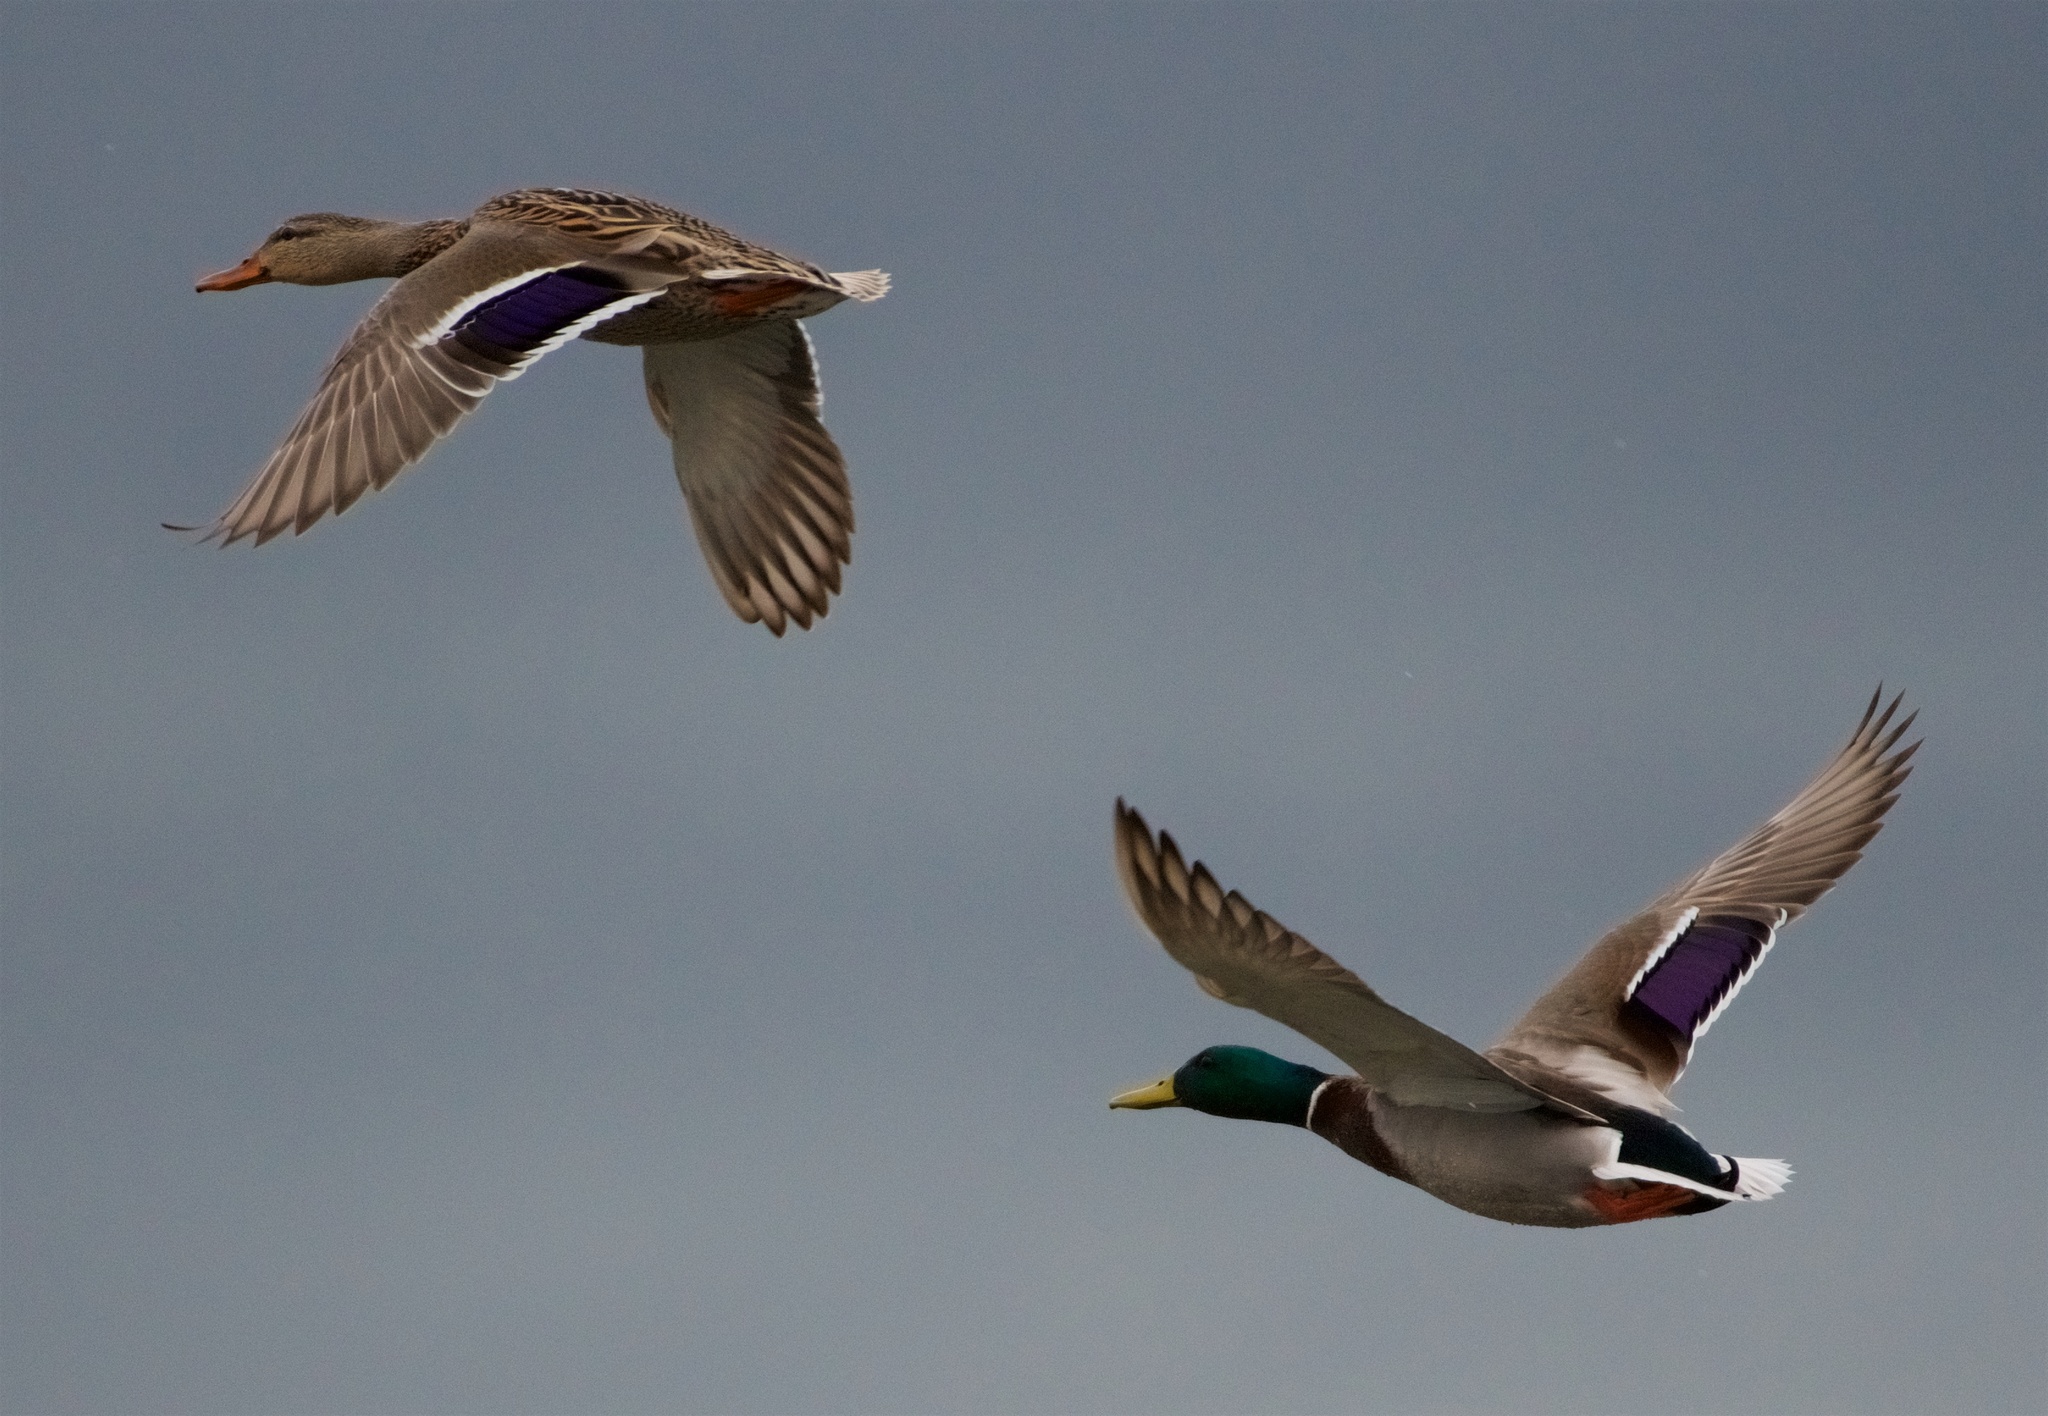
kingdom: Animalia
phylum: Chordata
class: Aves
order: Anseriformes
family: Anatidae
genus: Anas
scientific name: Anas platyrhynchos
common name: Mallard
